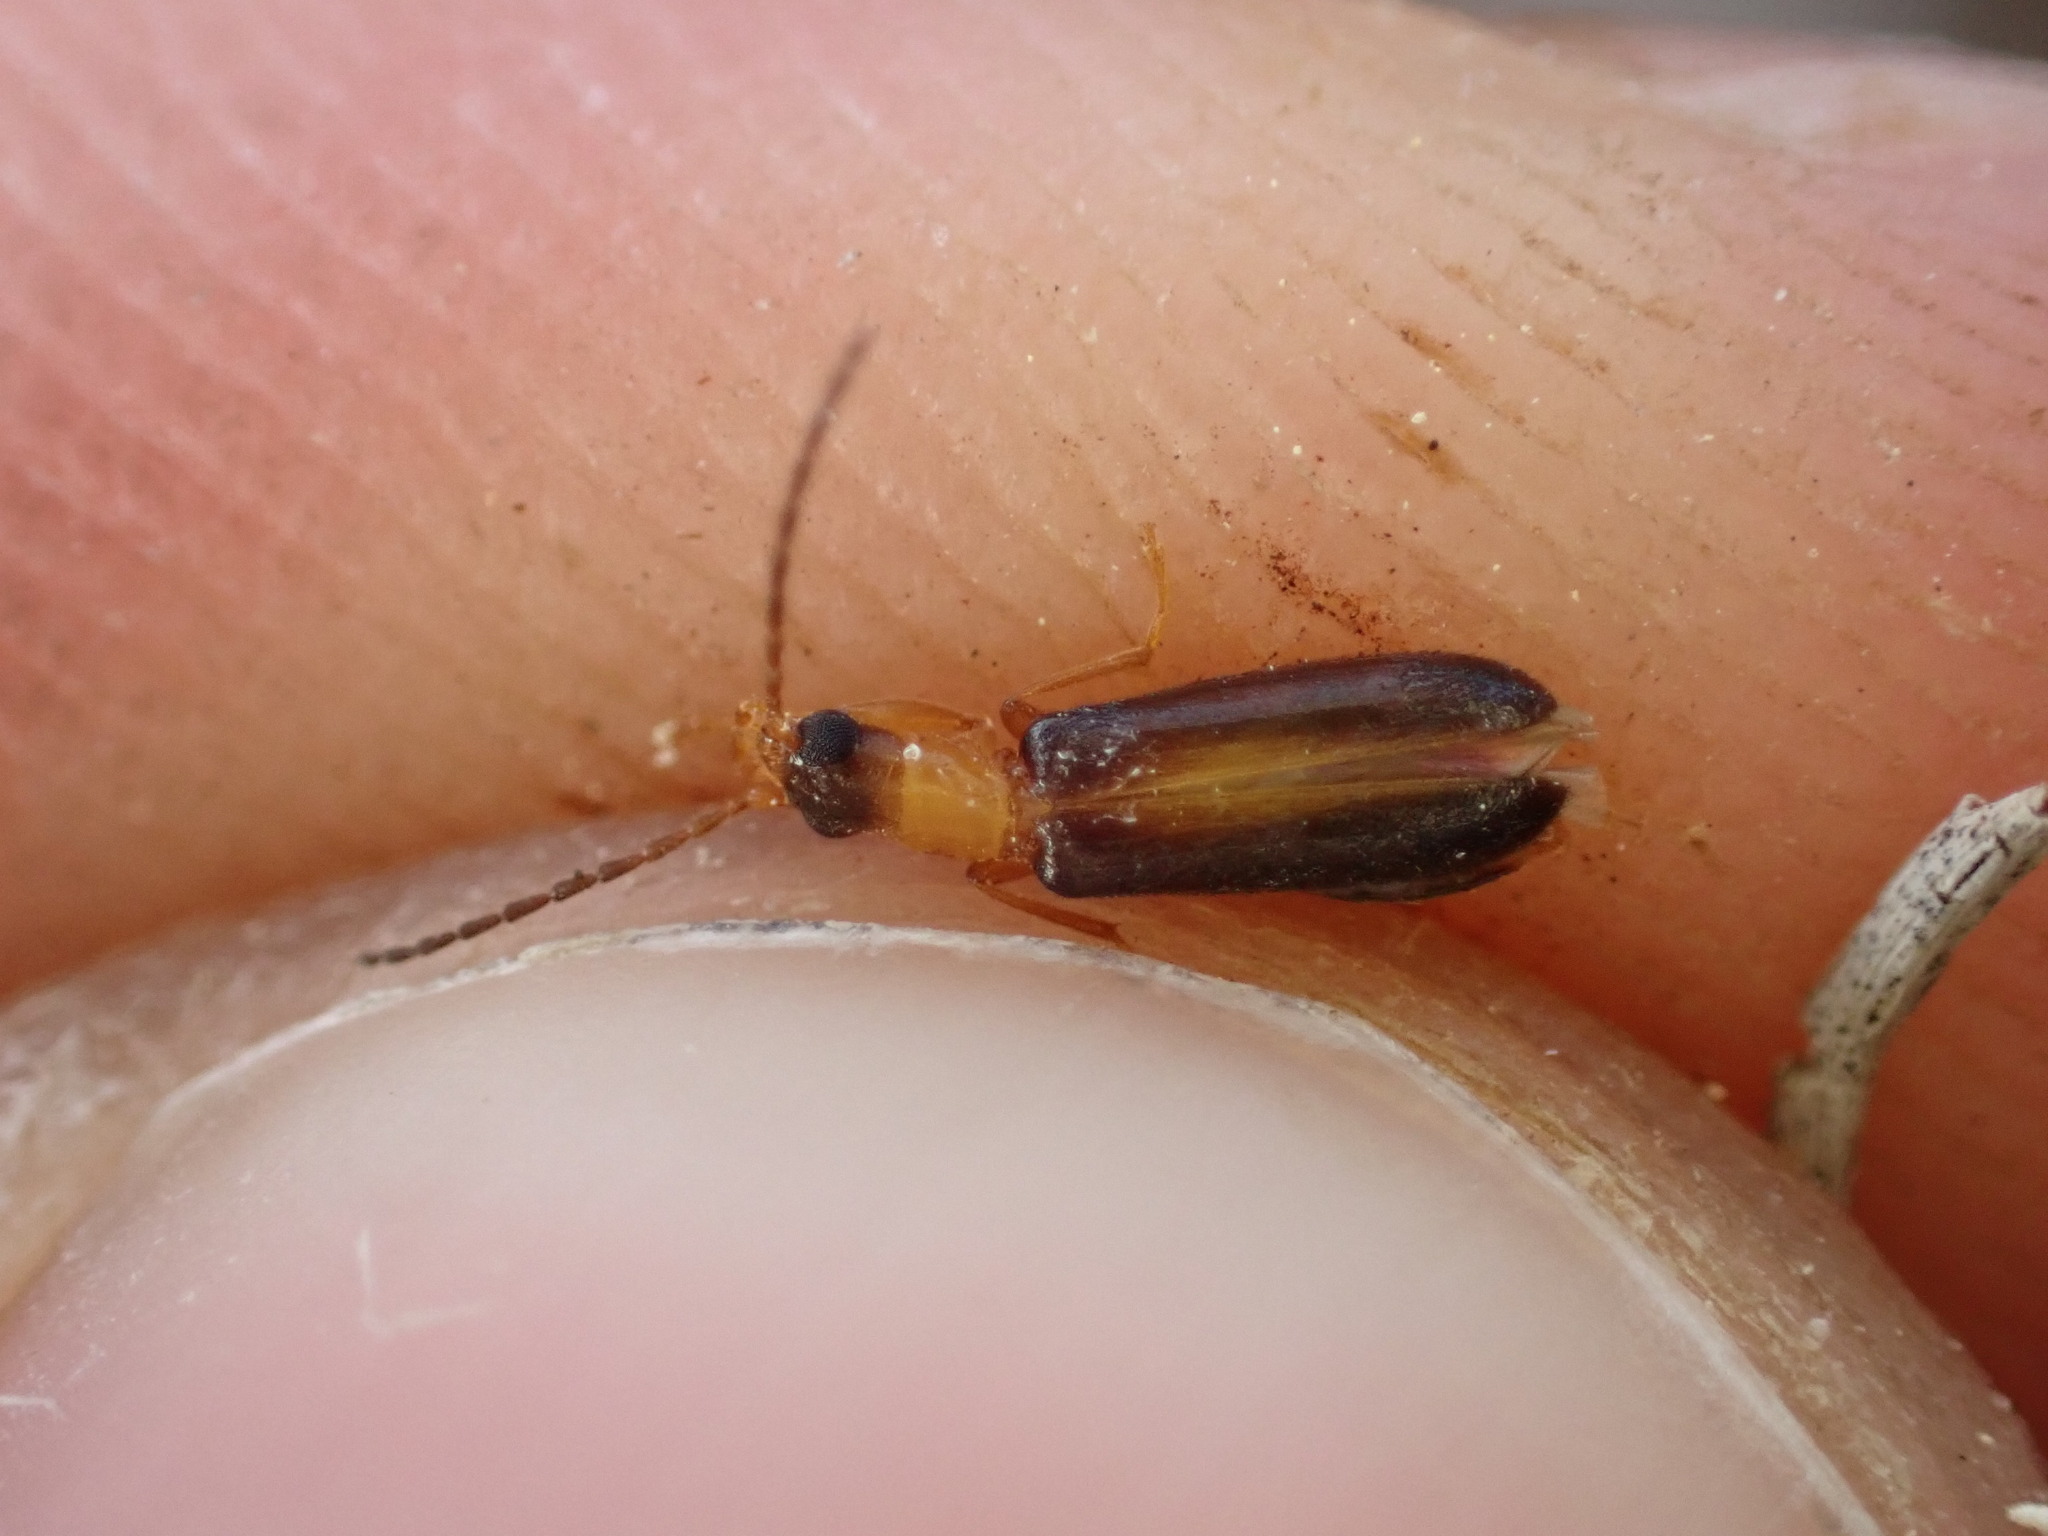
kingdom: Animalia
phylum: Arthropoda
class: Insecta
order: Coleoptera
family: Oedemeridae
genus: Xanthochroina
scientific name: Xanthochroina auberti
